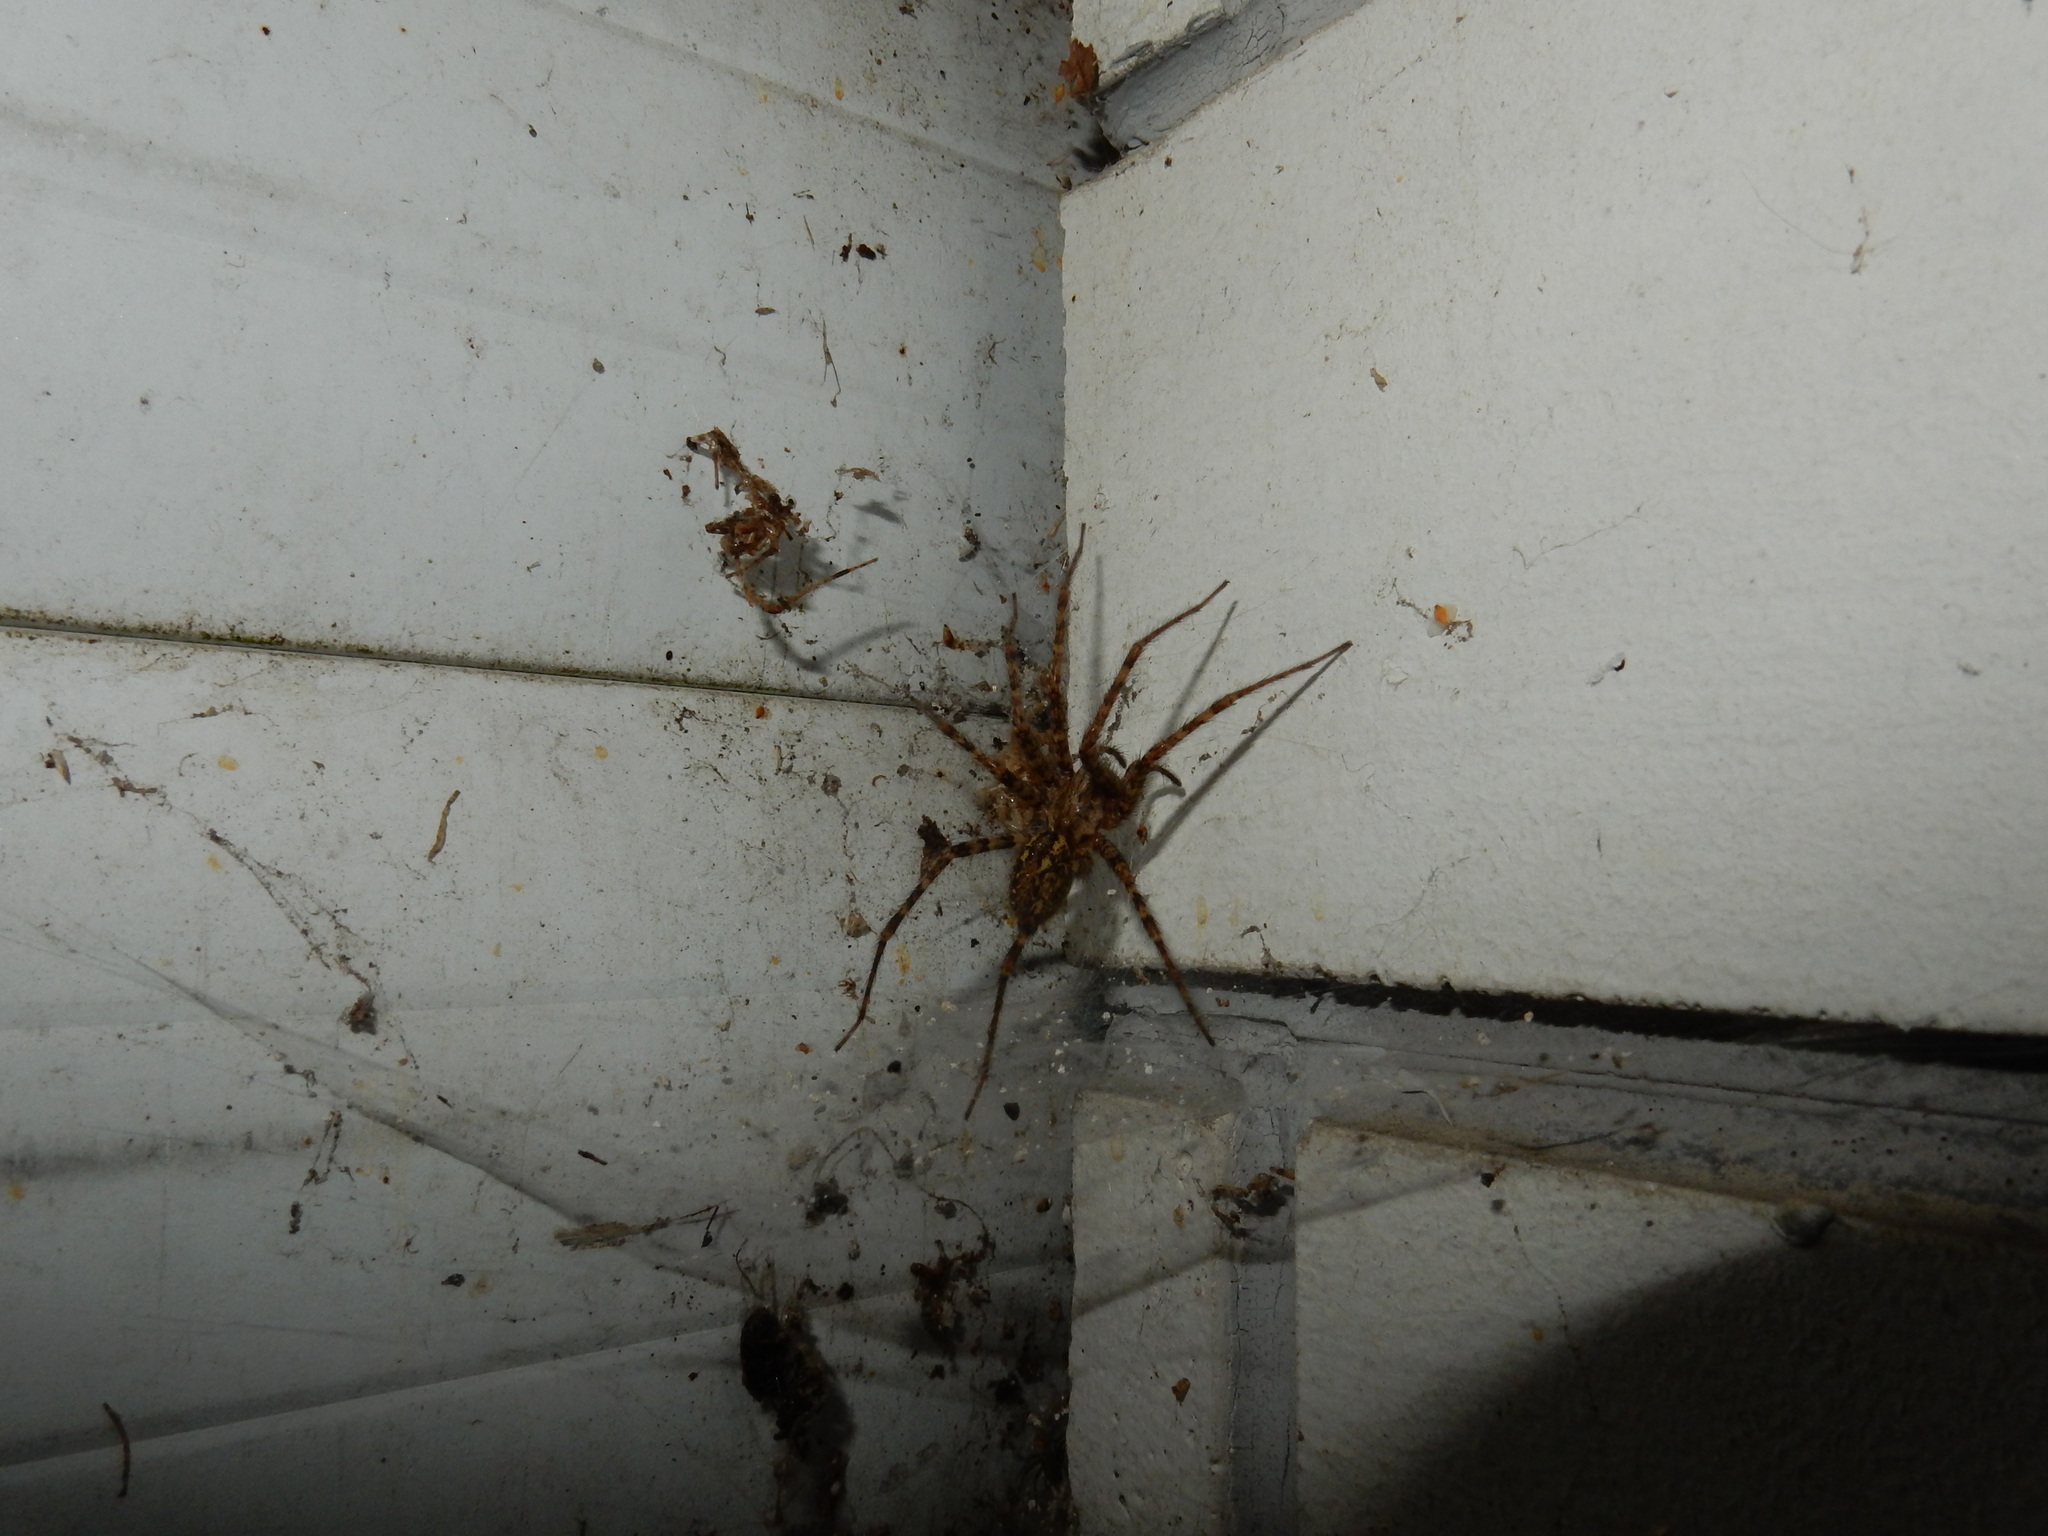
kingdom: Animalia
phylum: Arthropoda
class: Arachnida
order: Araneae
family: Agelenidae
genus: Tegenaria
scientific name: Tegenaria ferruginea
